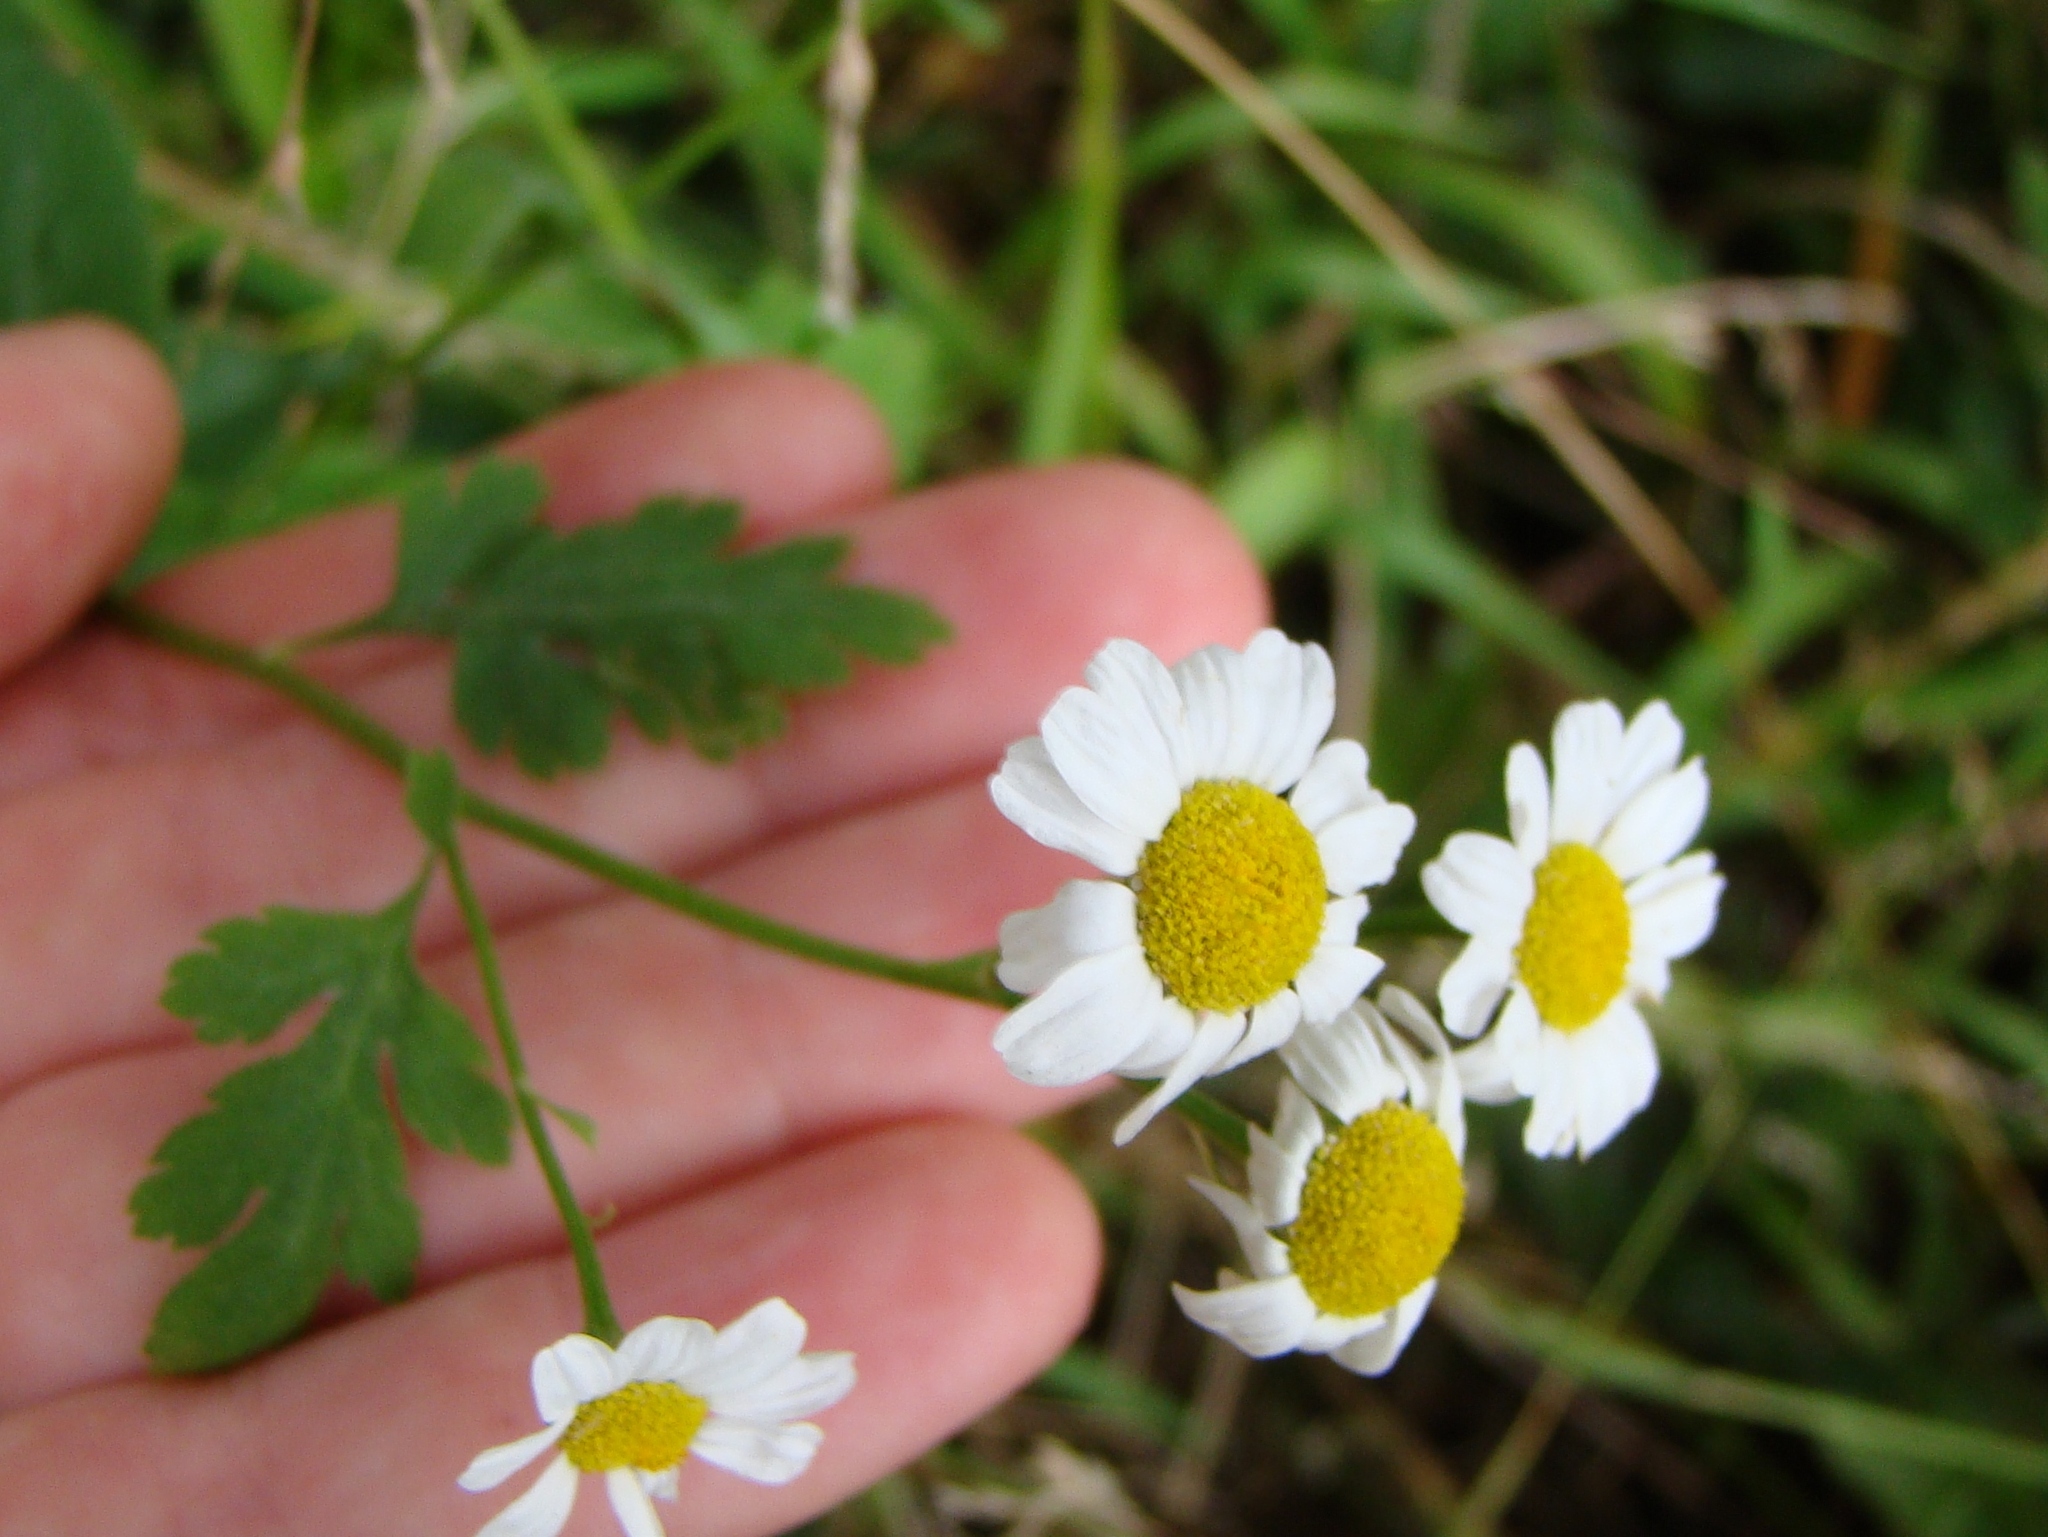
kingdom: Plantae
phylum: Tracheophyta
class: Magnoliopsida
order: Asterales
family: Asteraceae
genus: Tanacetum
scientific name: Tanacetum parthenium
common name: Feverfew
